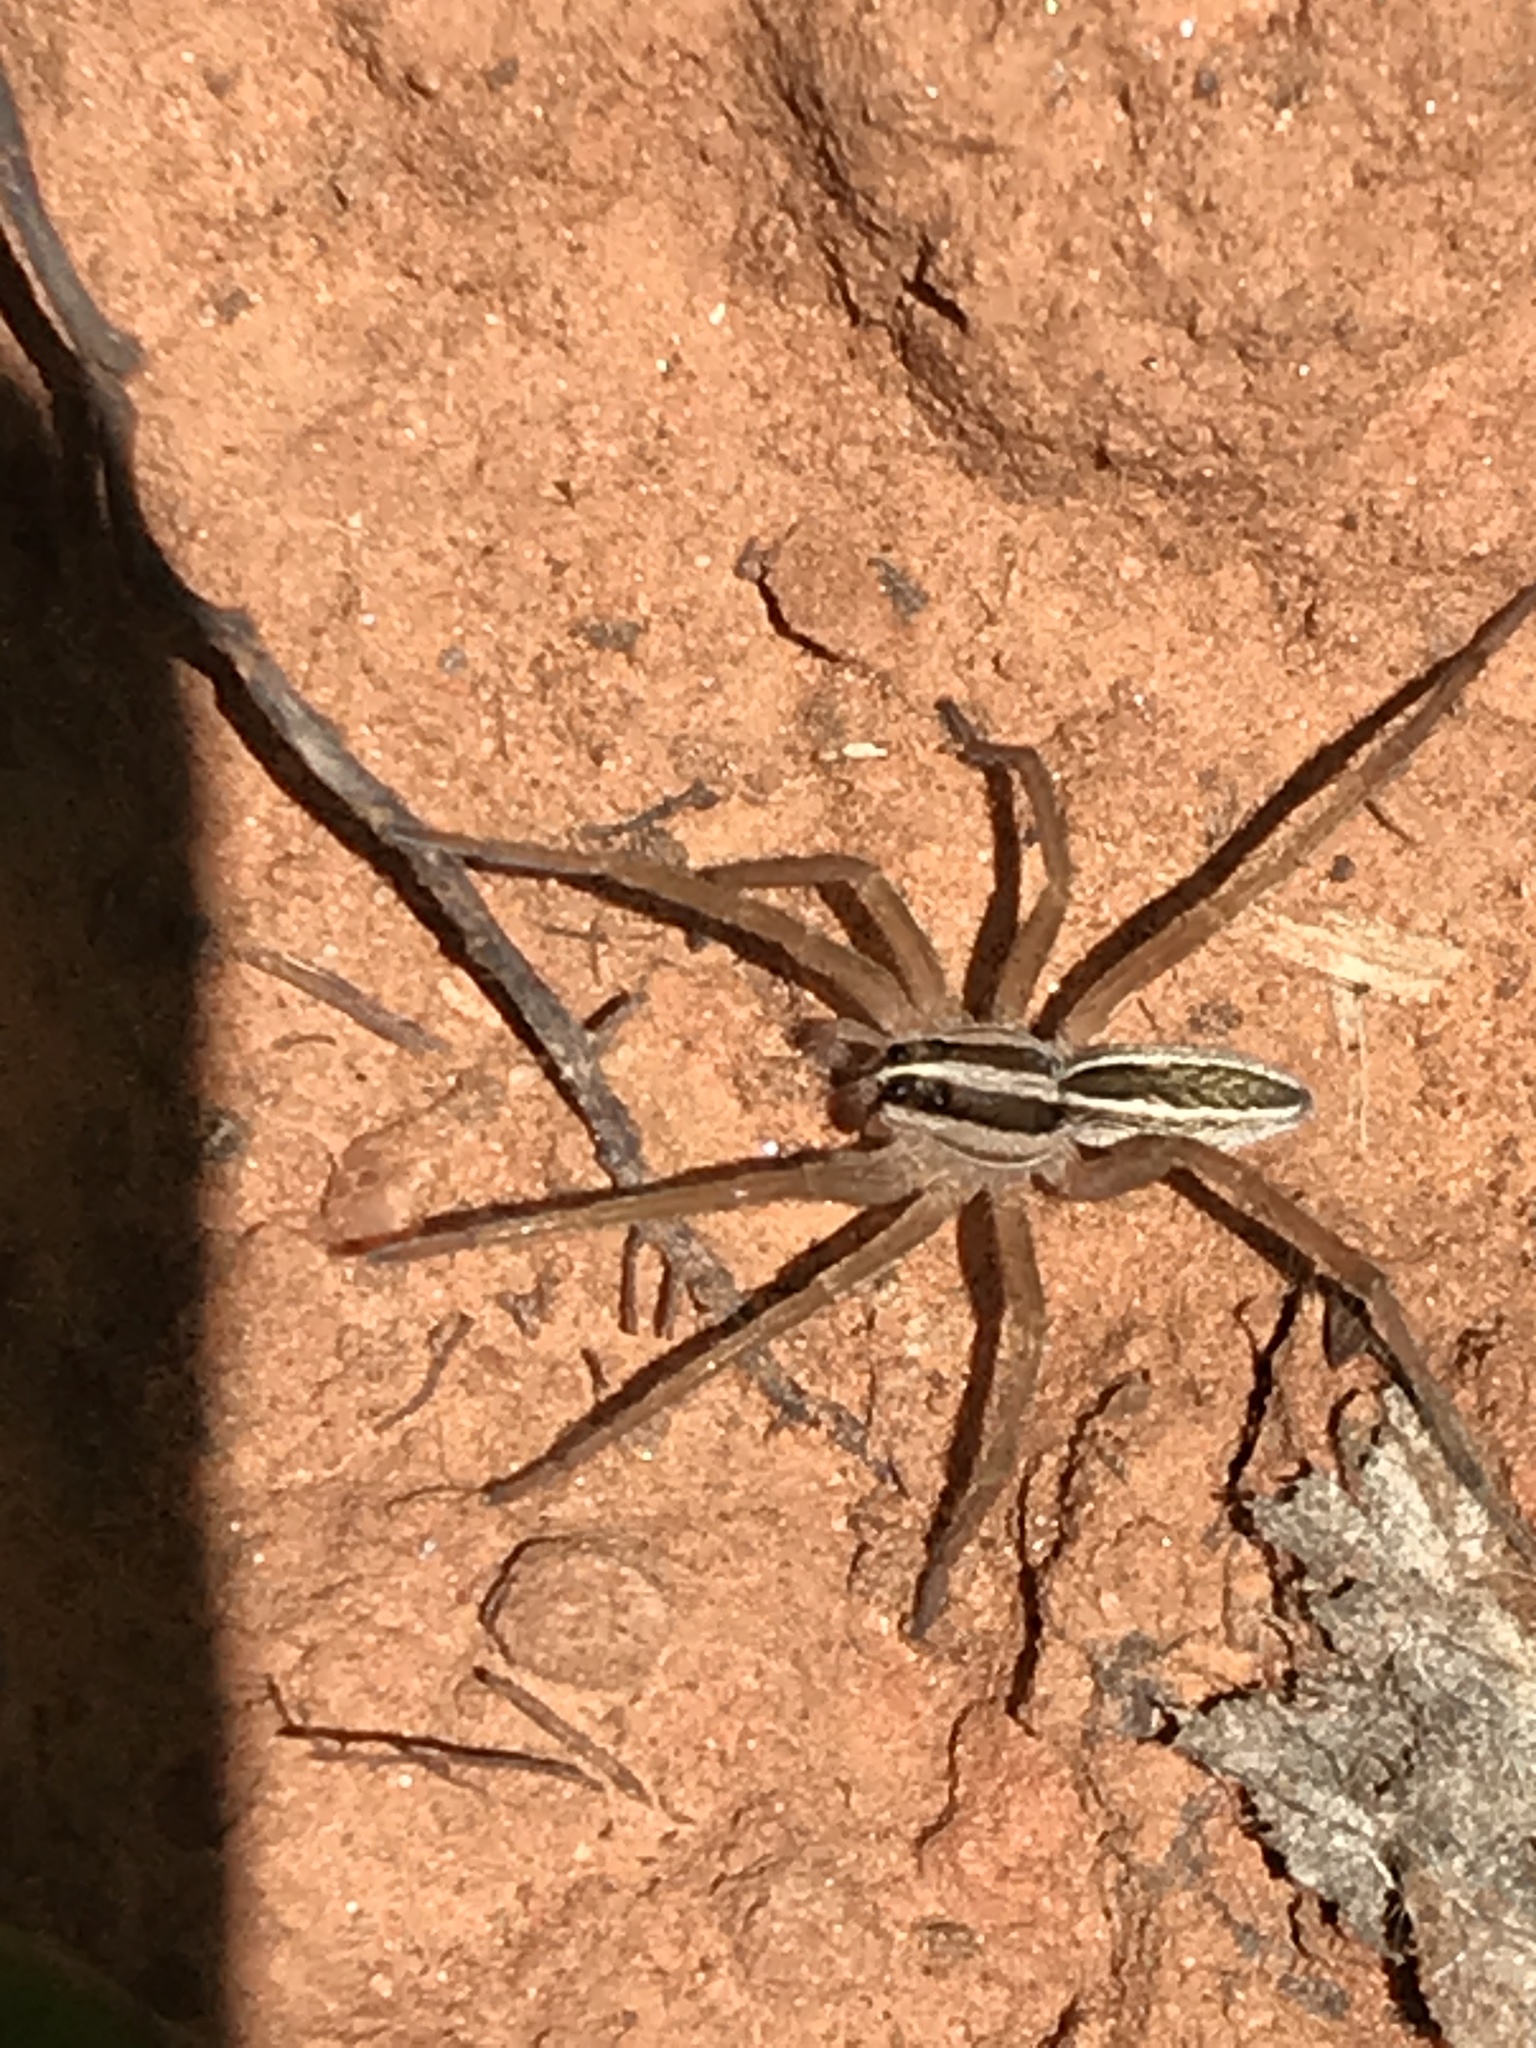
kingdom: Animalia
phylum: Arthropoda
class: Arachnida
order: Araneae
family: Lycosidae
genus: Rabidosa
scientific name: Rabidosa rabida
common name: Rabid wolf spider
